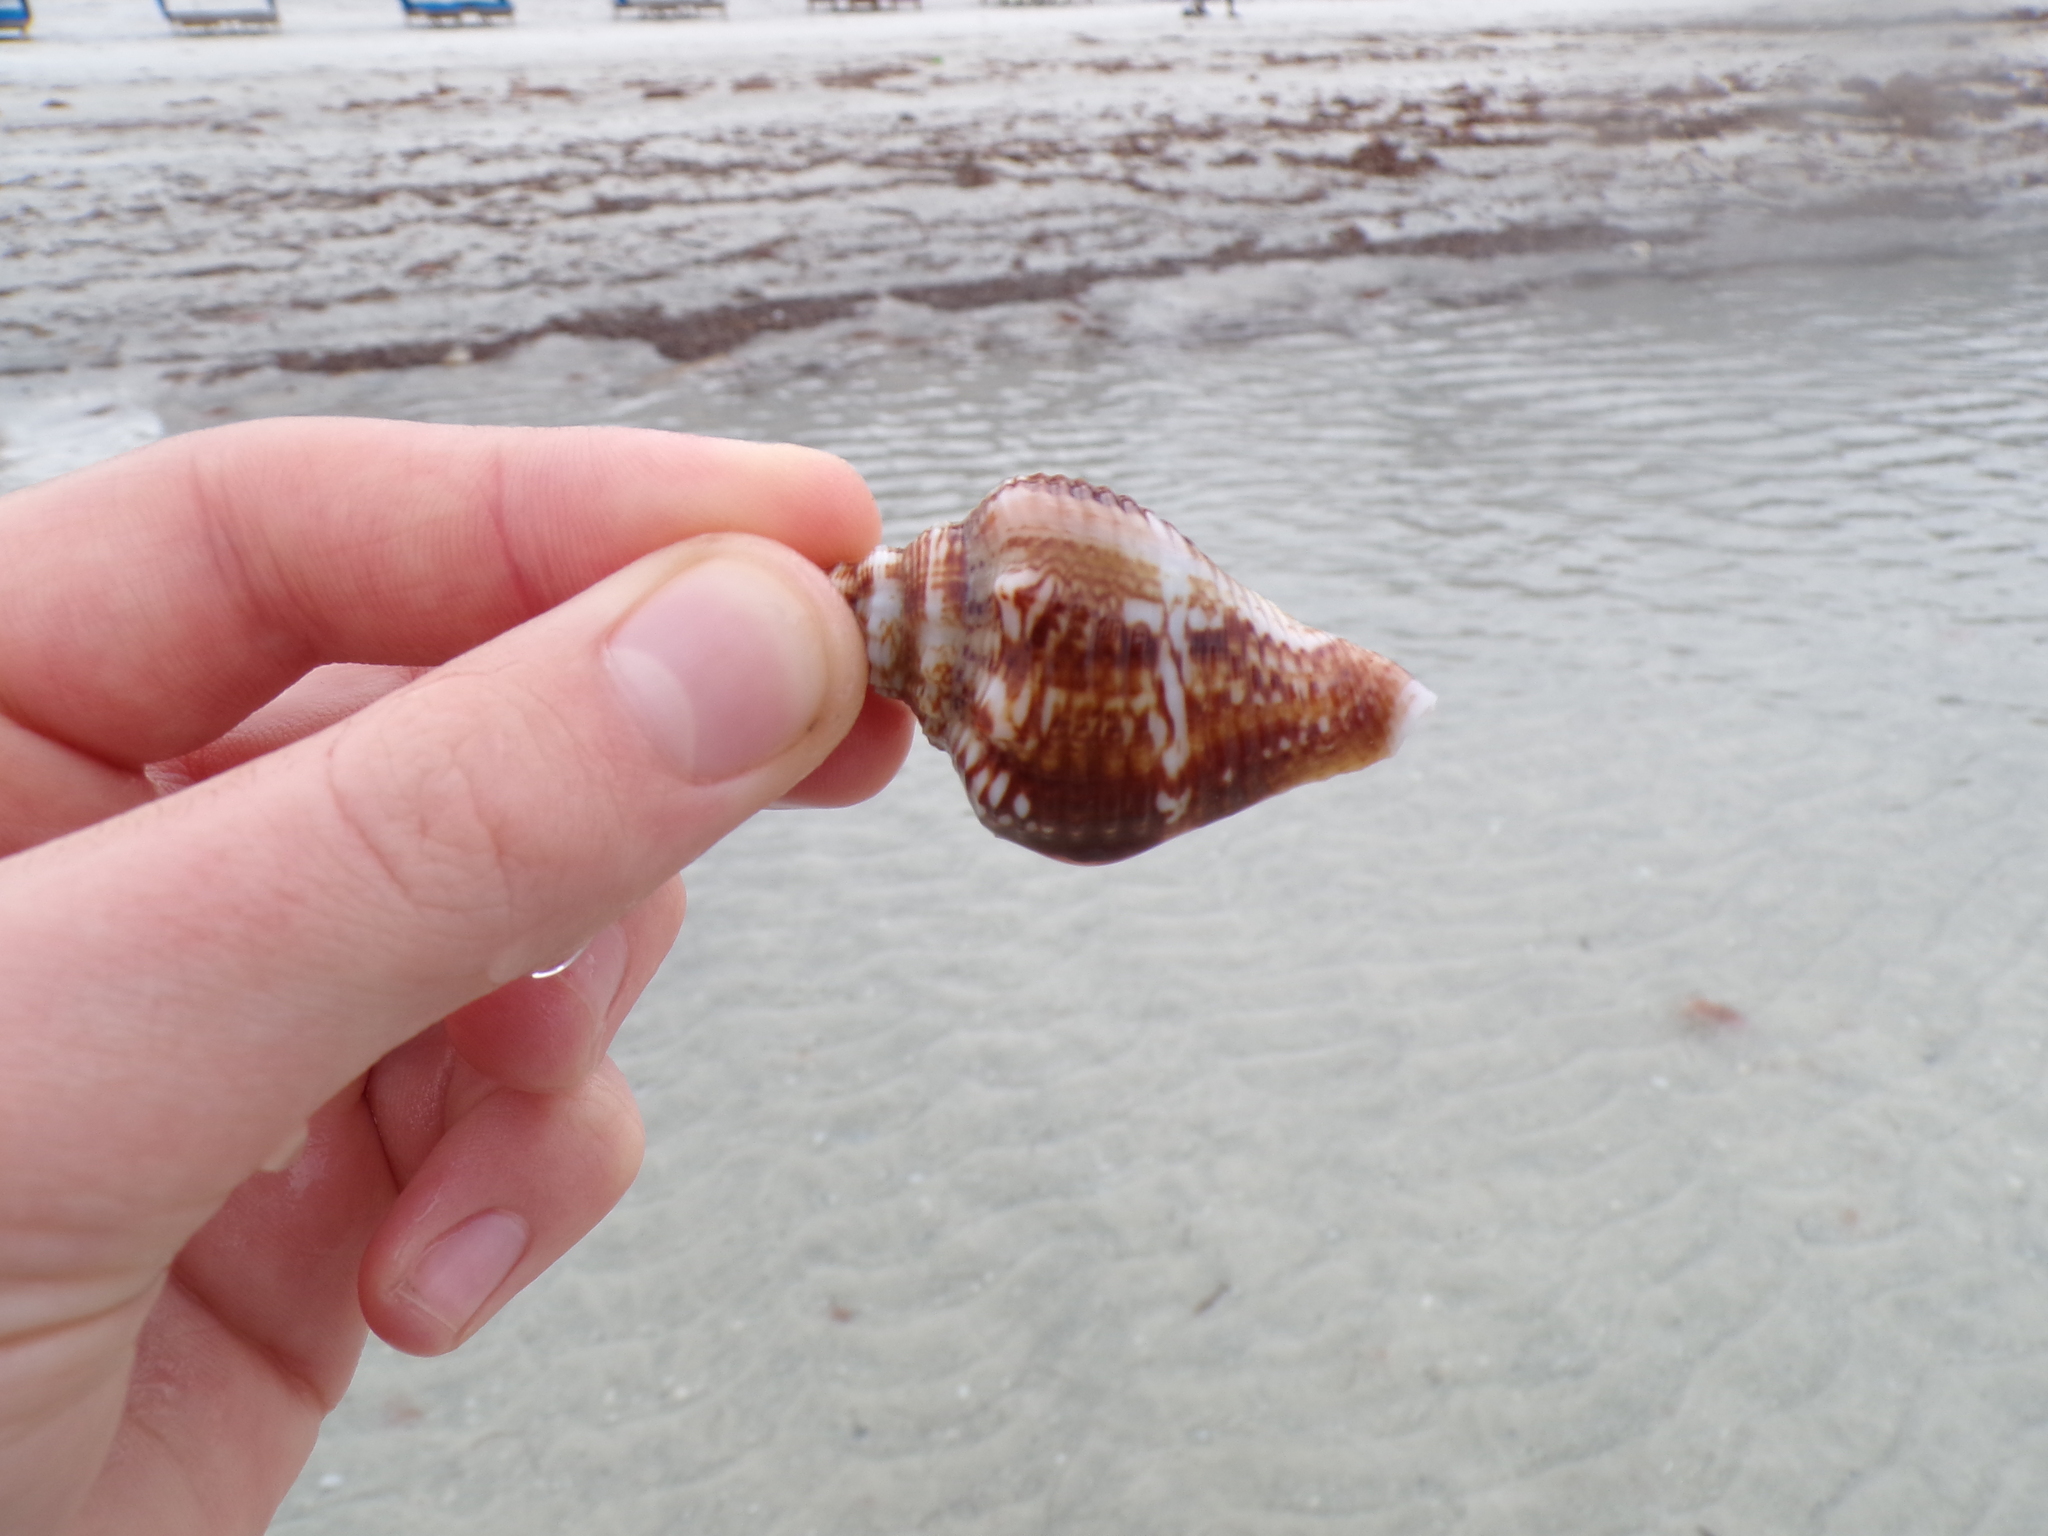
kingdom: Animalia
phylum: Mollusca
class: Gastropoda
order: Littorinimorpha
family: Strombidae
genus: Strombus
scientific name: Strombus alatus
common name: Florida fighting conch
